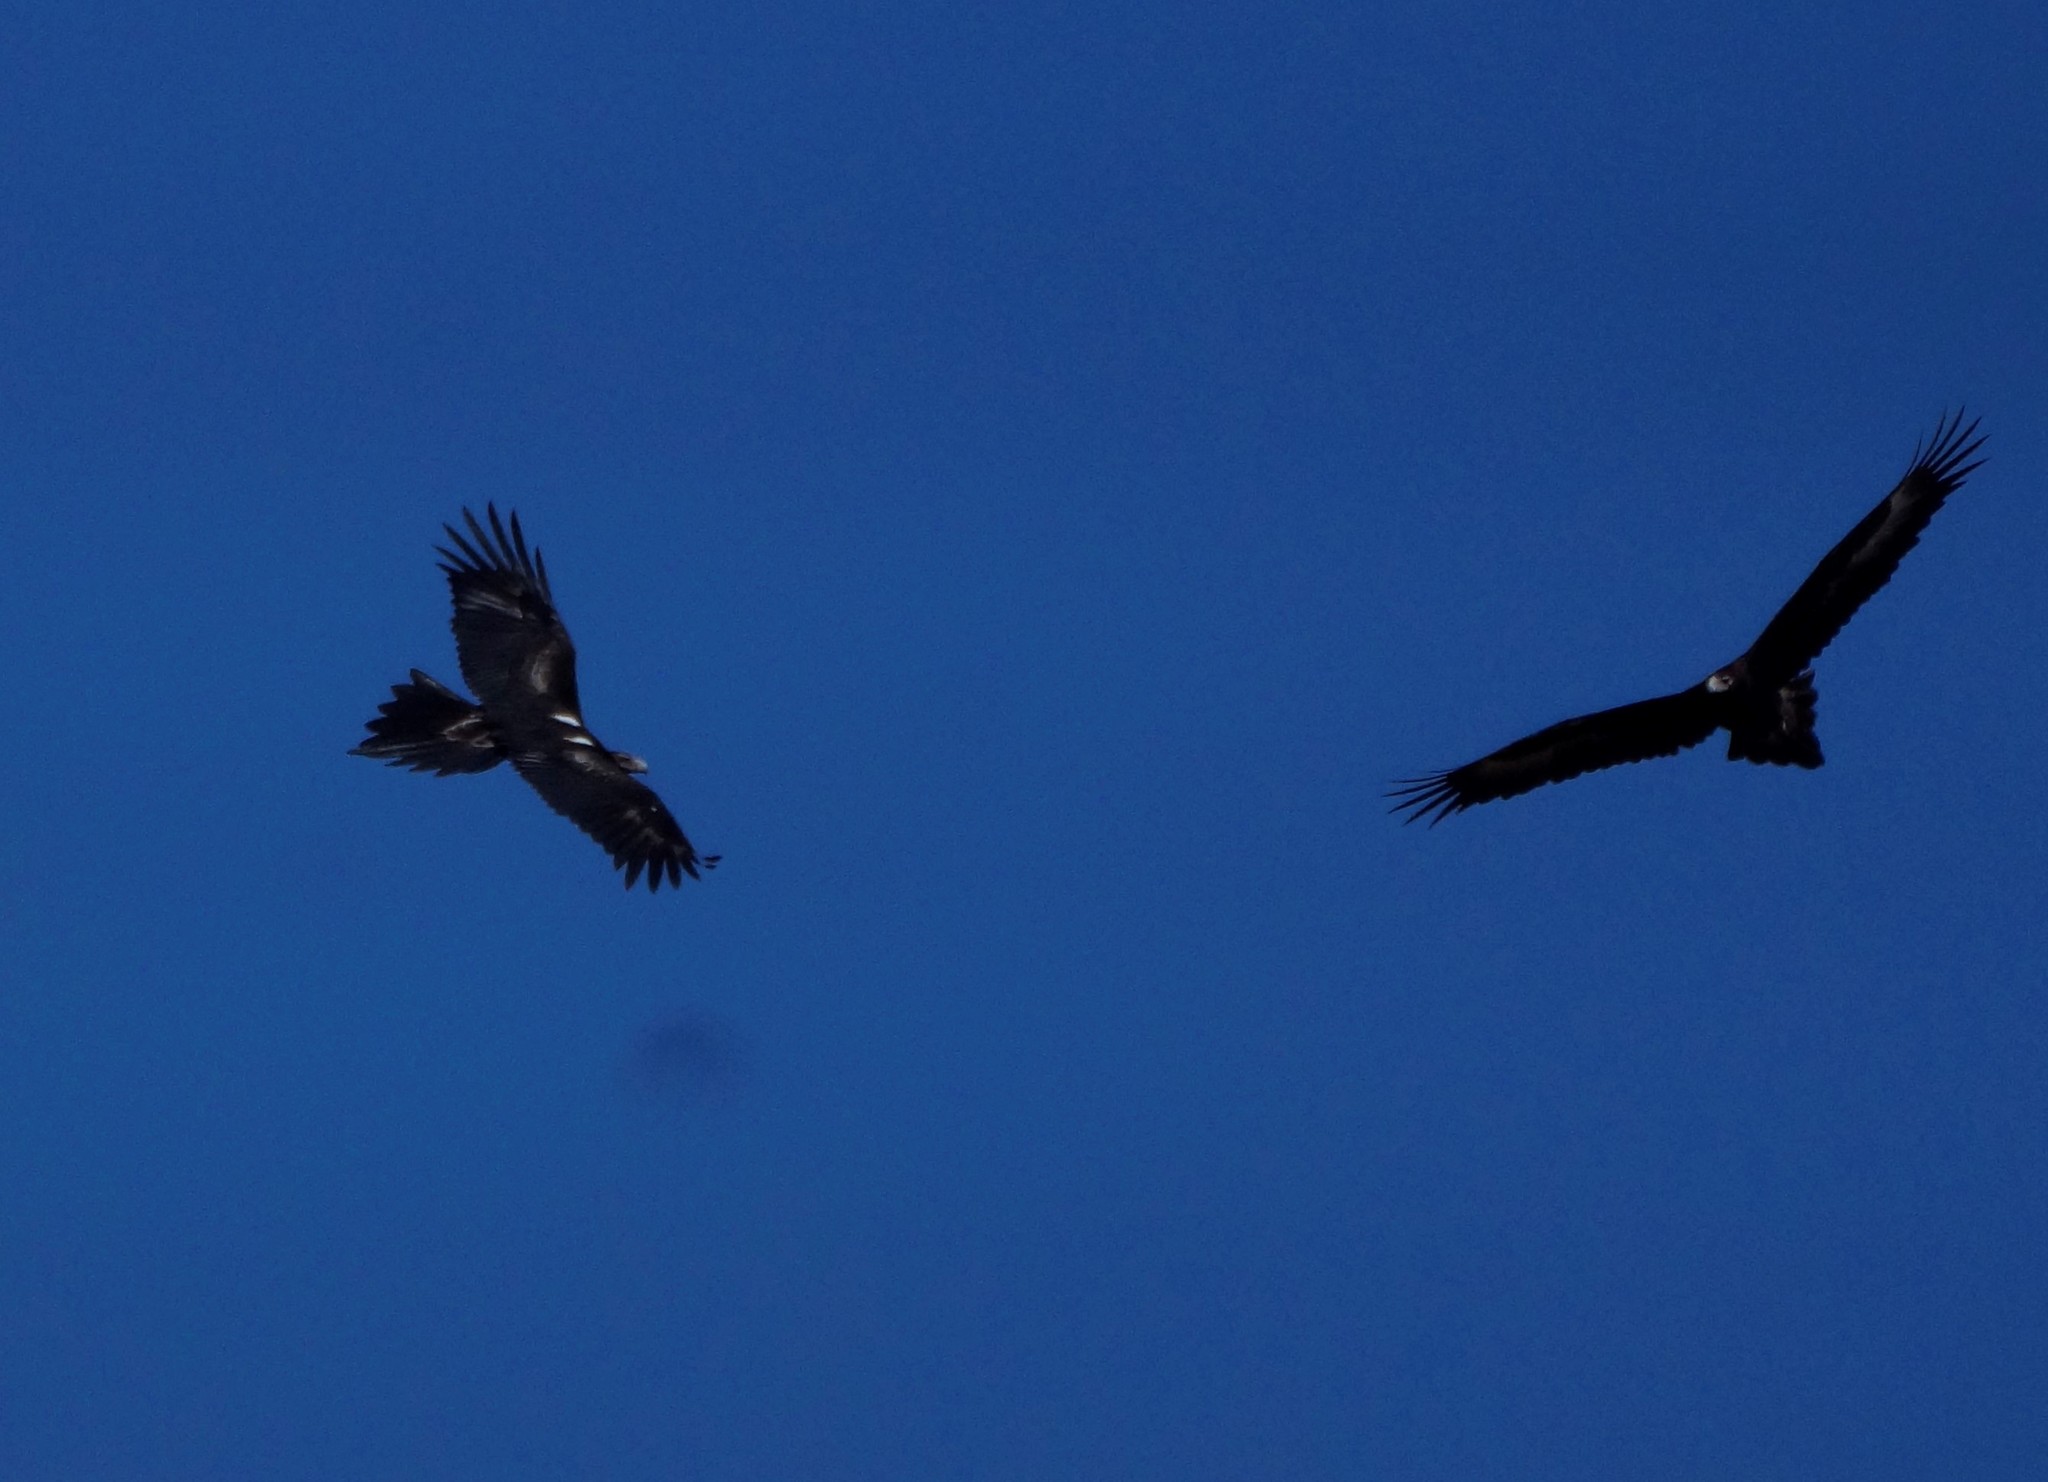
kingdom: Animalia
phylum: Chordata
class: Aves
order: Accipitriformes
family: Accipitridae
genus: Aquila
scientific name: Aquila audax
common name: Wedge-tailed eagle
